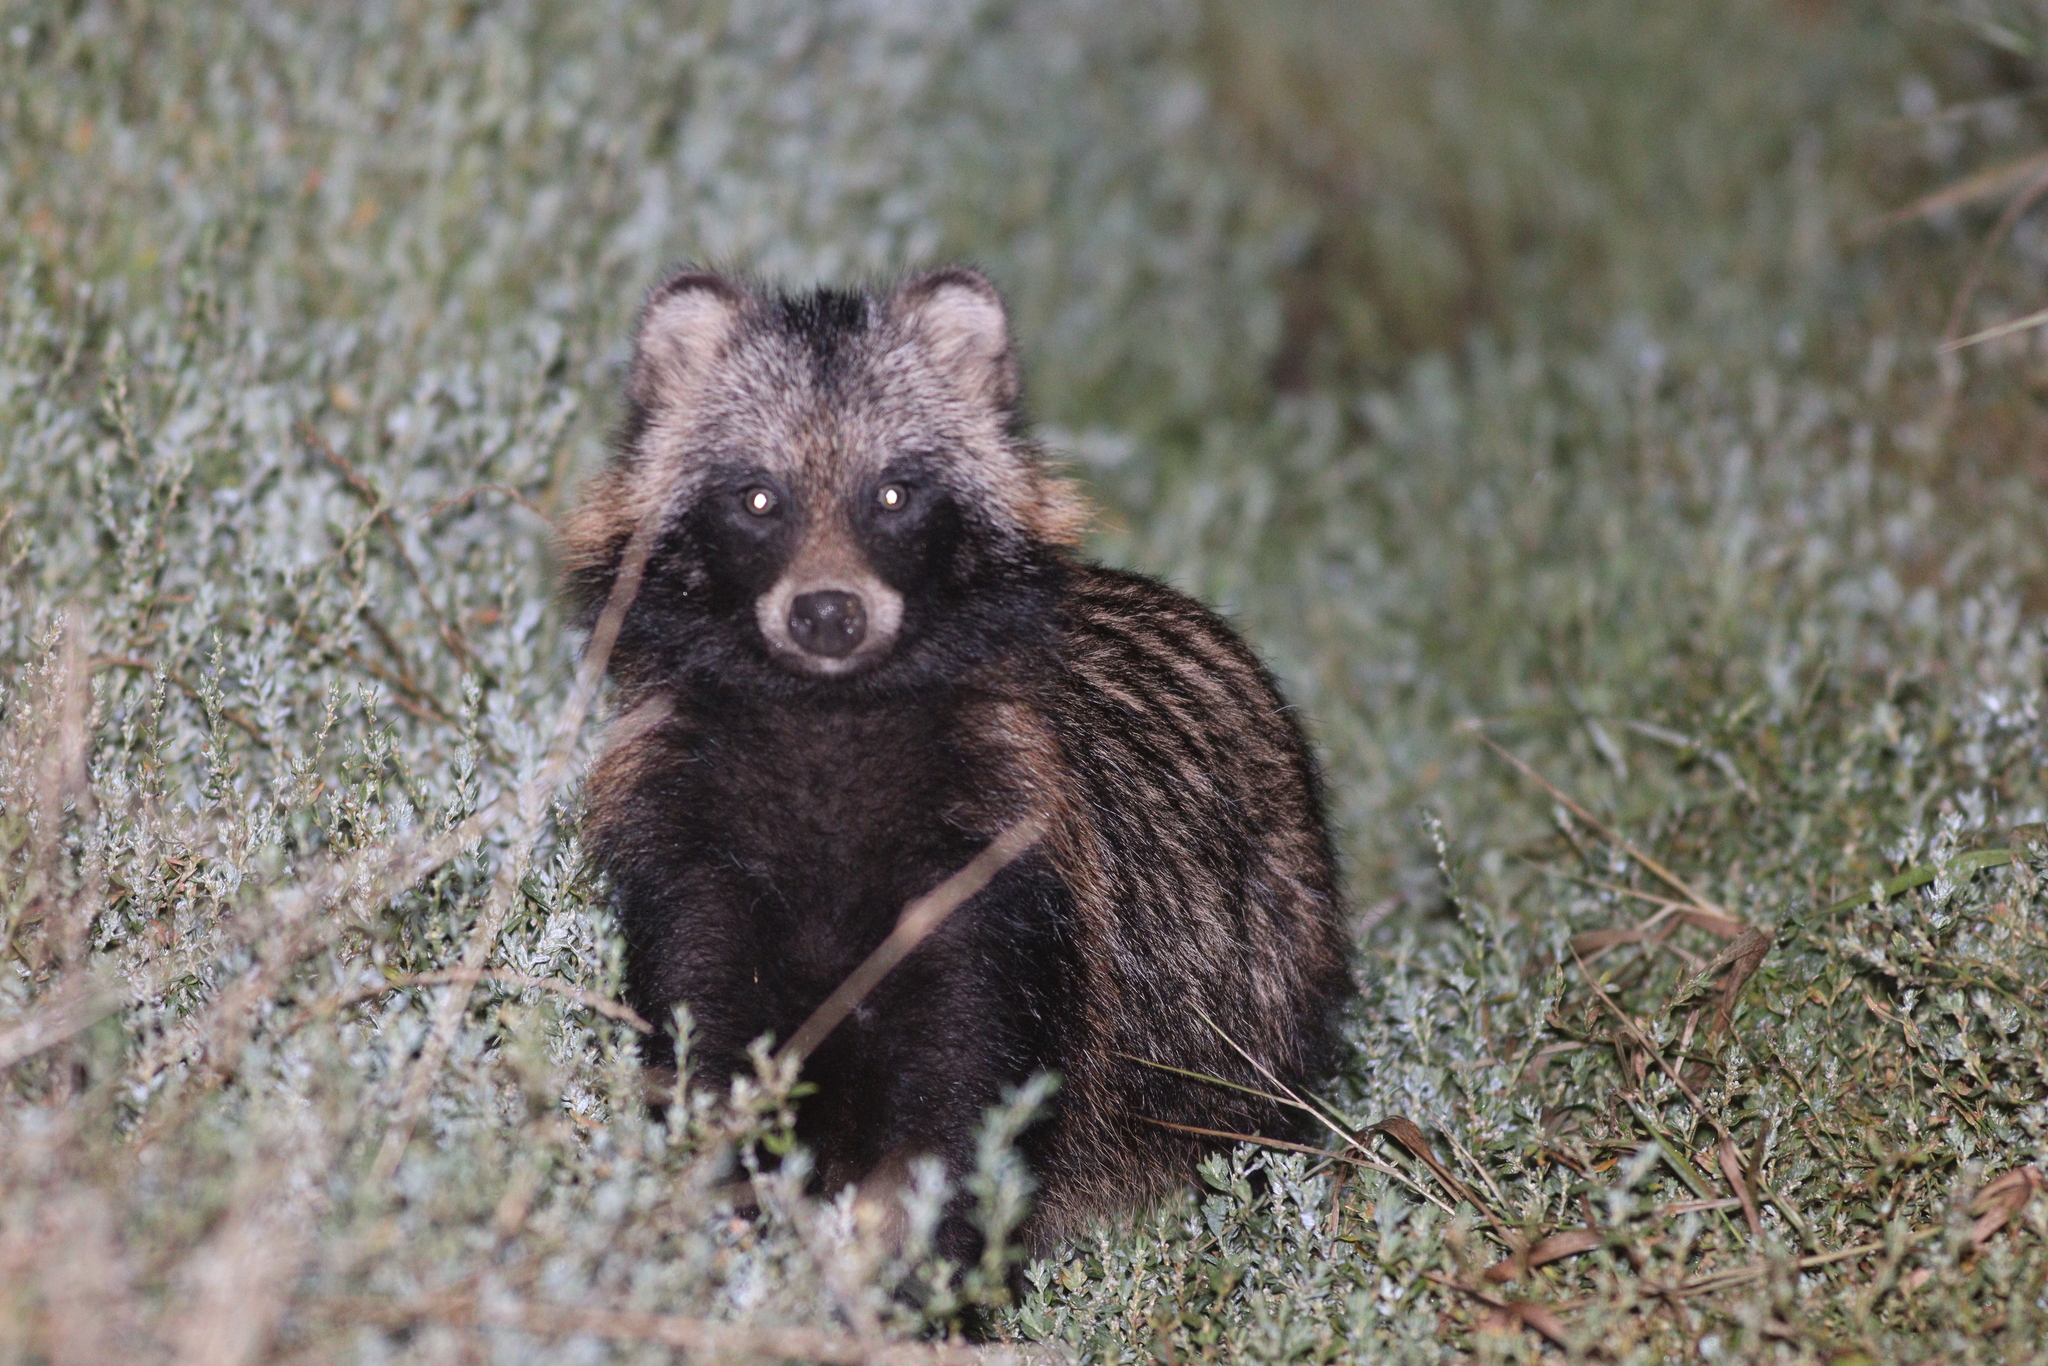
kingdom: Animalia
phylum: Chordata
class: Mammalia
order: Carnivora
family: Canidae
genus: Nyctereutes
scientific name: Nyctereutes procyonoides
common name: Raccoon dog
